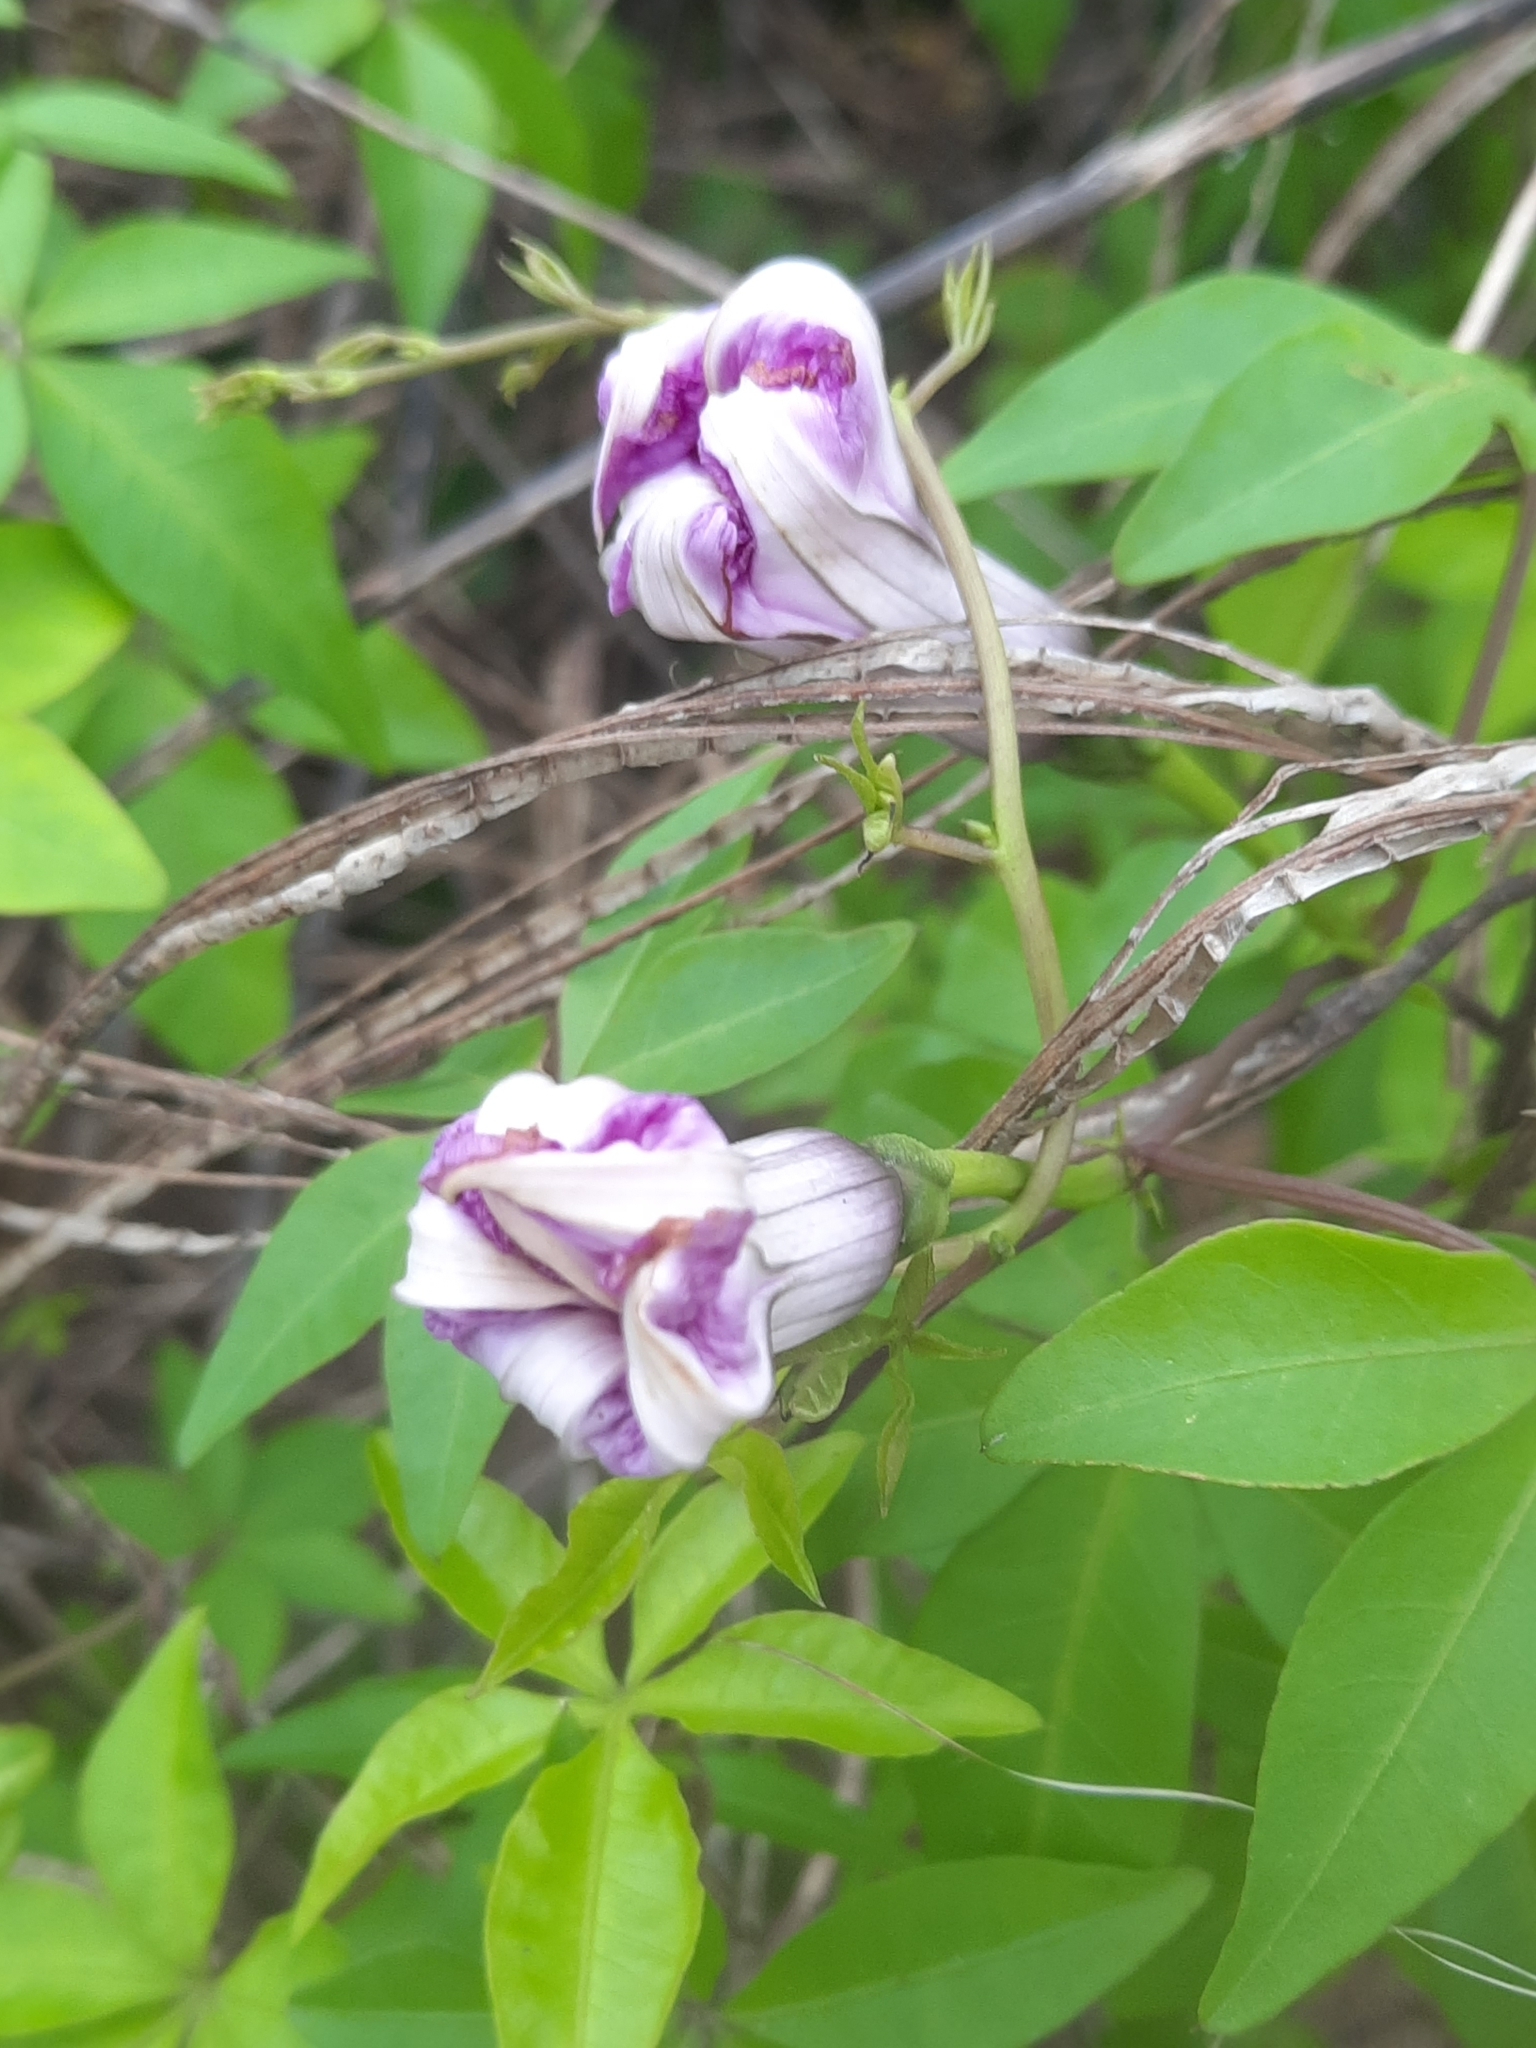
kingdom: Plantae
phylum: Tracheophyta
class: Magnoliopsida
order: Solanales
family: Convolvulaceae
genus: Ipomoea
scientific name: Ipomoea cairica
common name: Mile a minute vine
